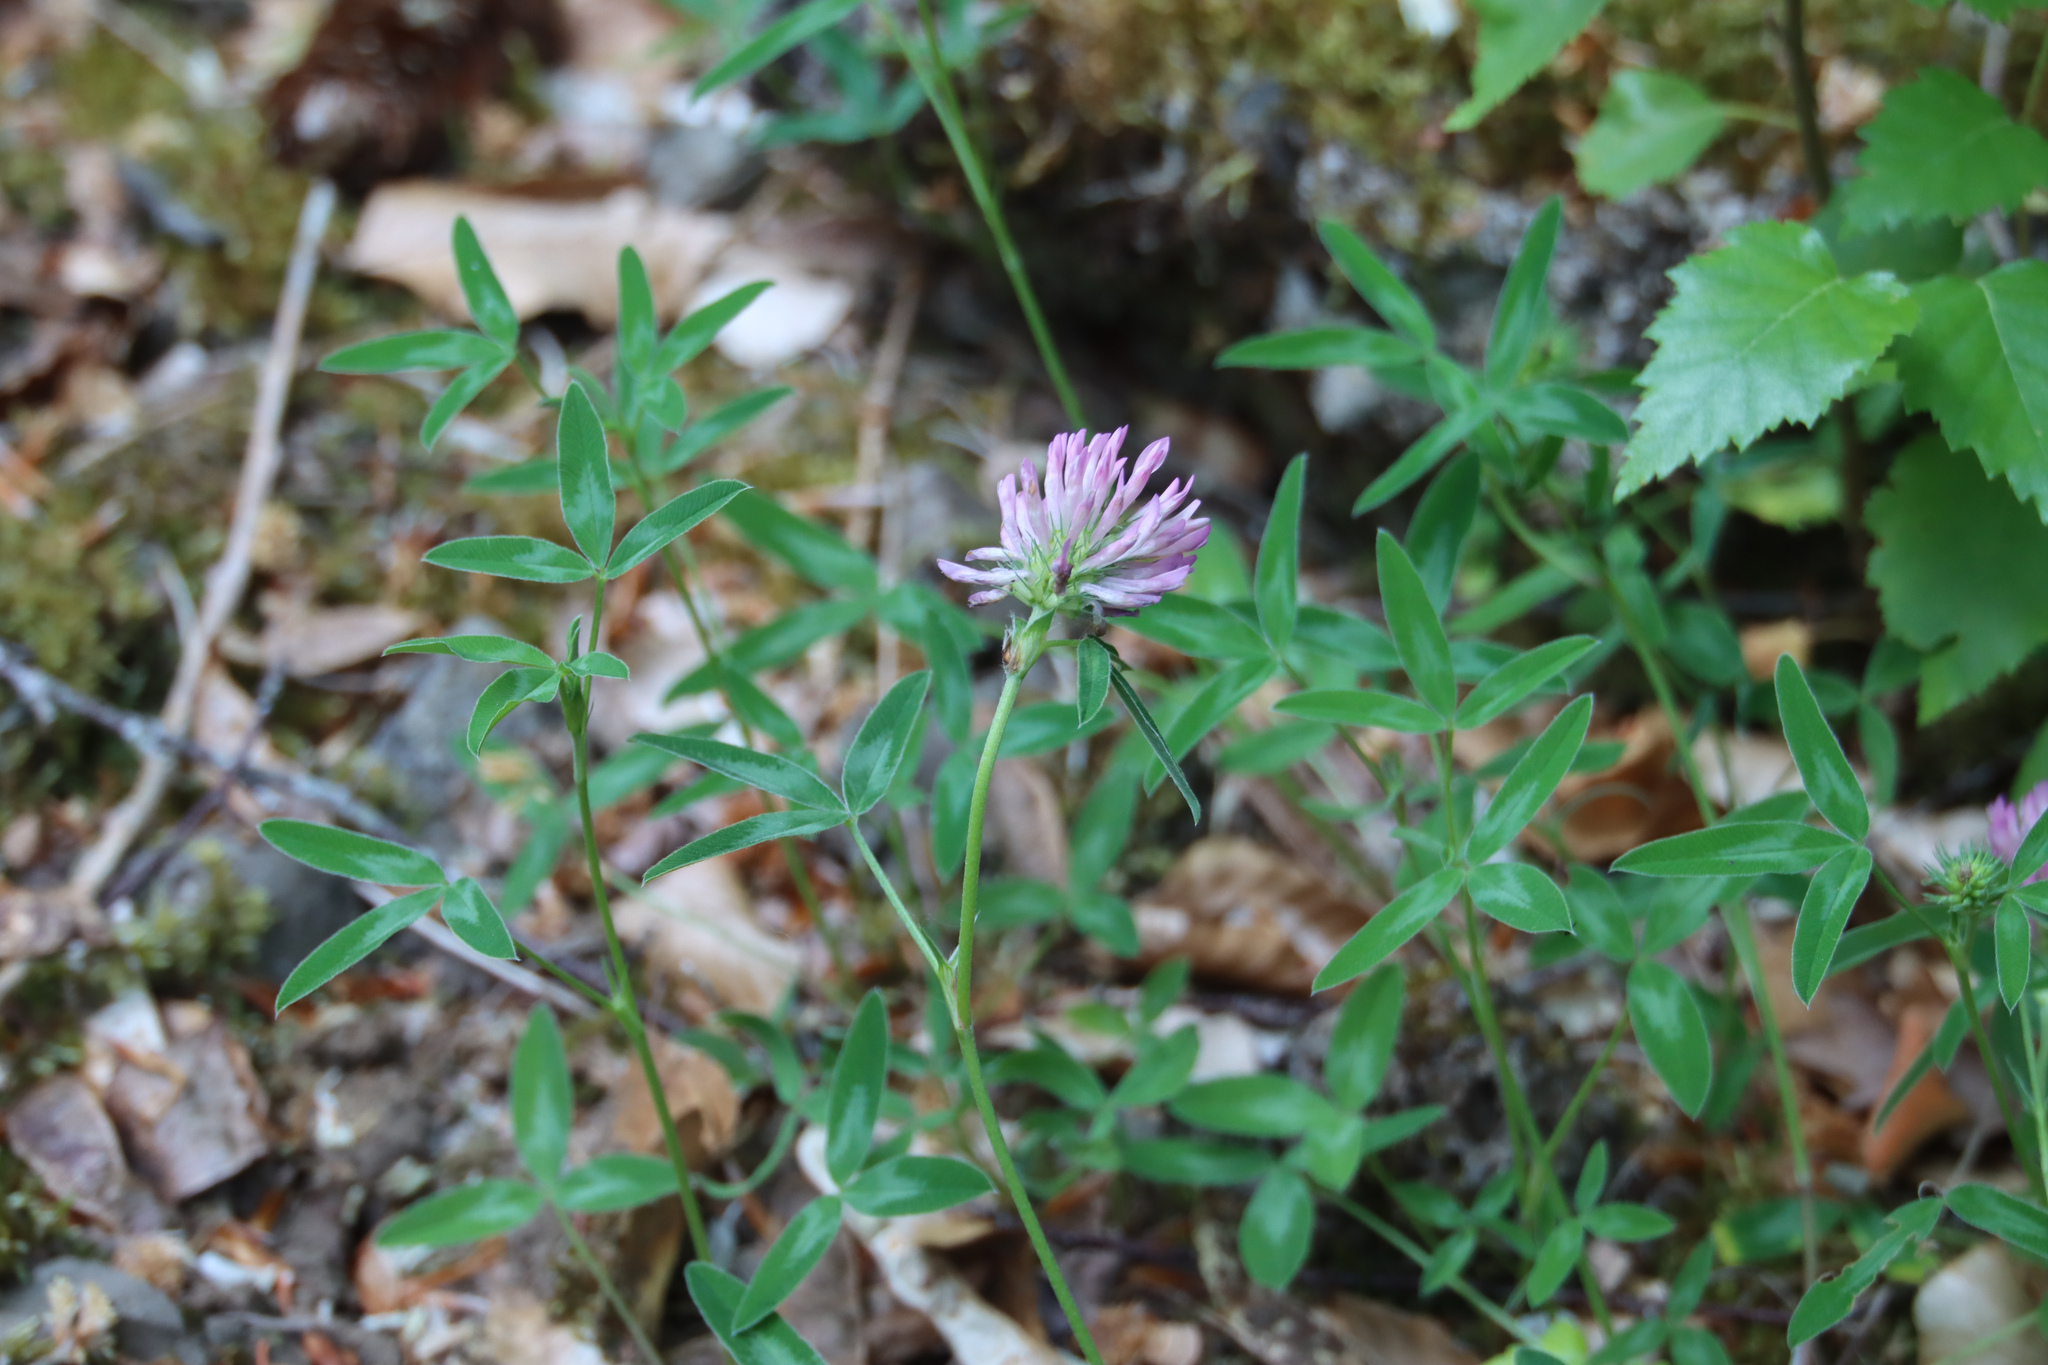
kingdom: Plantae
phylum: Tracheophyta
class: Magnoliopsida
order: Fabales
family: Fabaceae
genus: Trifolium
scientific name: Trifolium medium
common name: Zigzag clover
